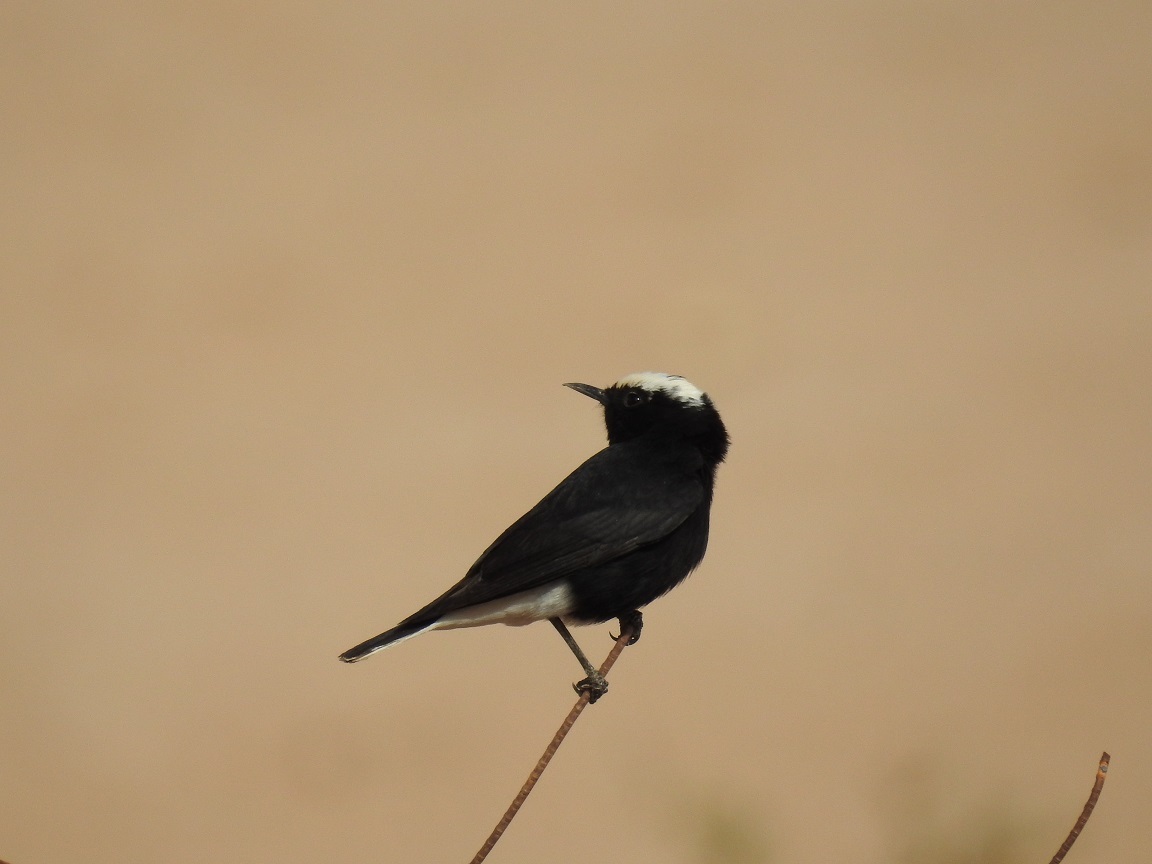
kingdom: Animalia
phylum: Chordata
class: Aves
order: Passeriformes
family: Muscicapidae
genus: Oenanthe
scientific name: Oenanthe leucopyga
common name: White-crowned wheatear
